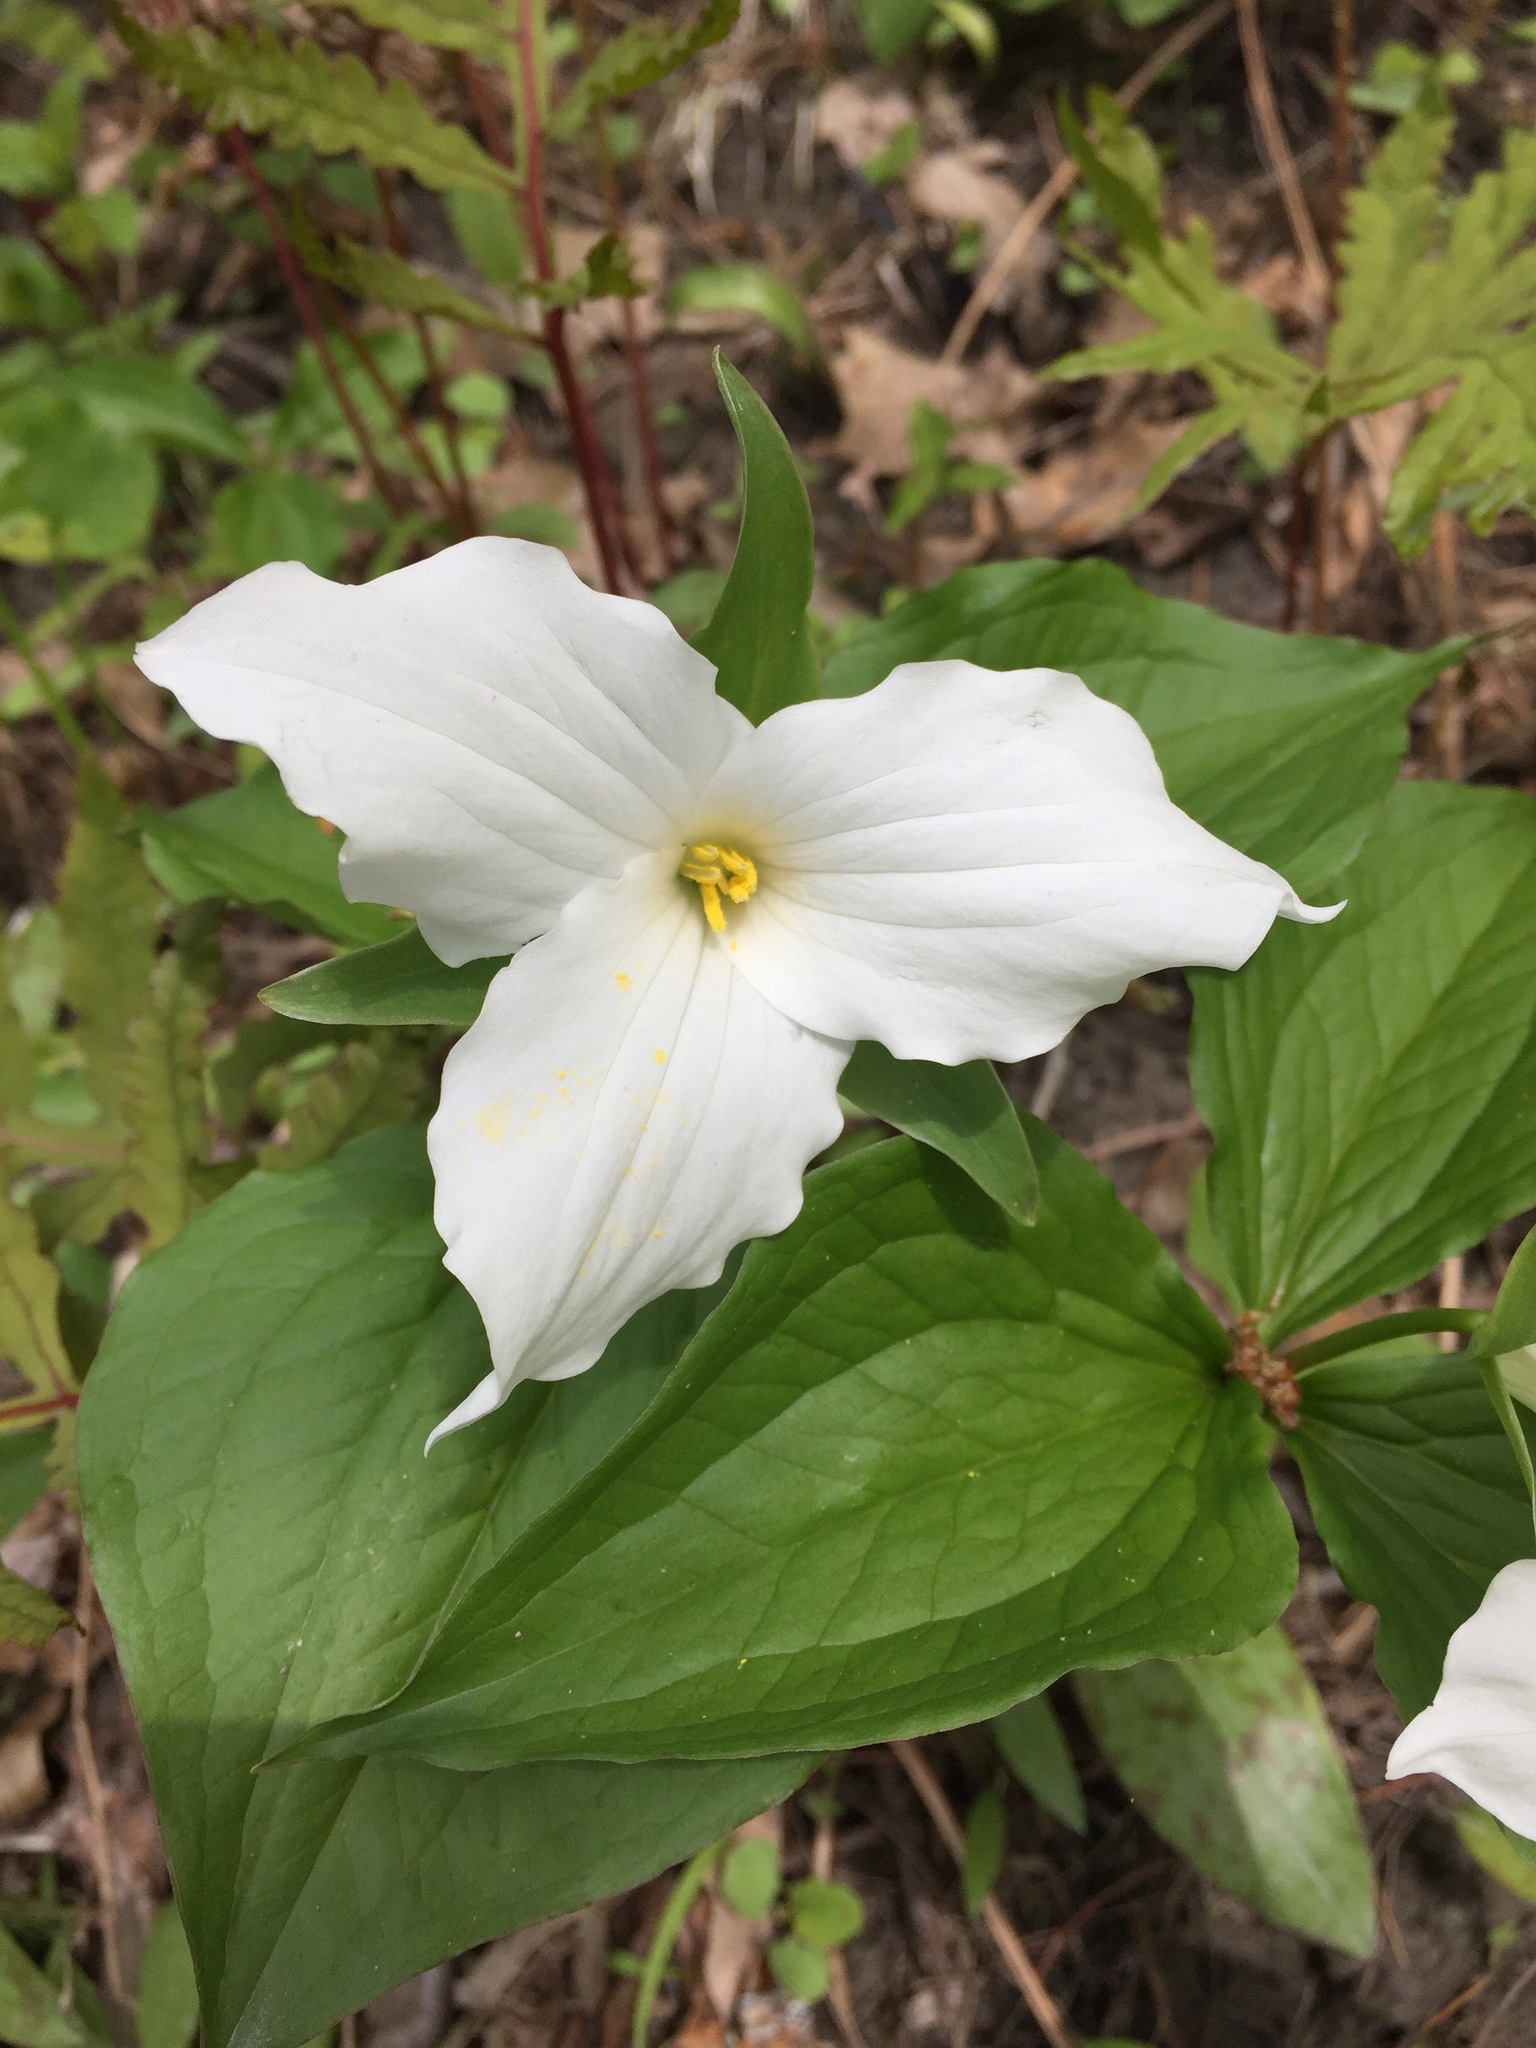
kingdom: Plantae
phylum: Tracheophyta
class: Liliopsida
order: Liliales
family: Melanthiaceae
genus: Trillium
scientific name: Trillium grandiflorum
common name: Great white trillium
